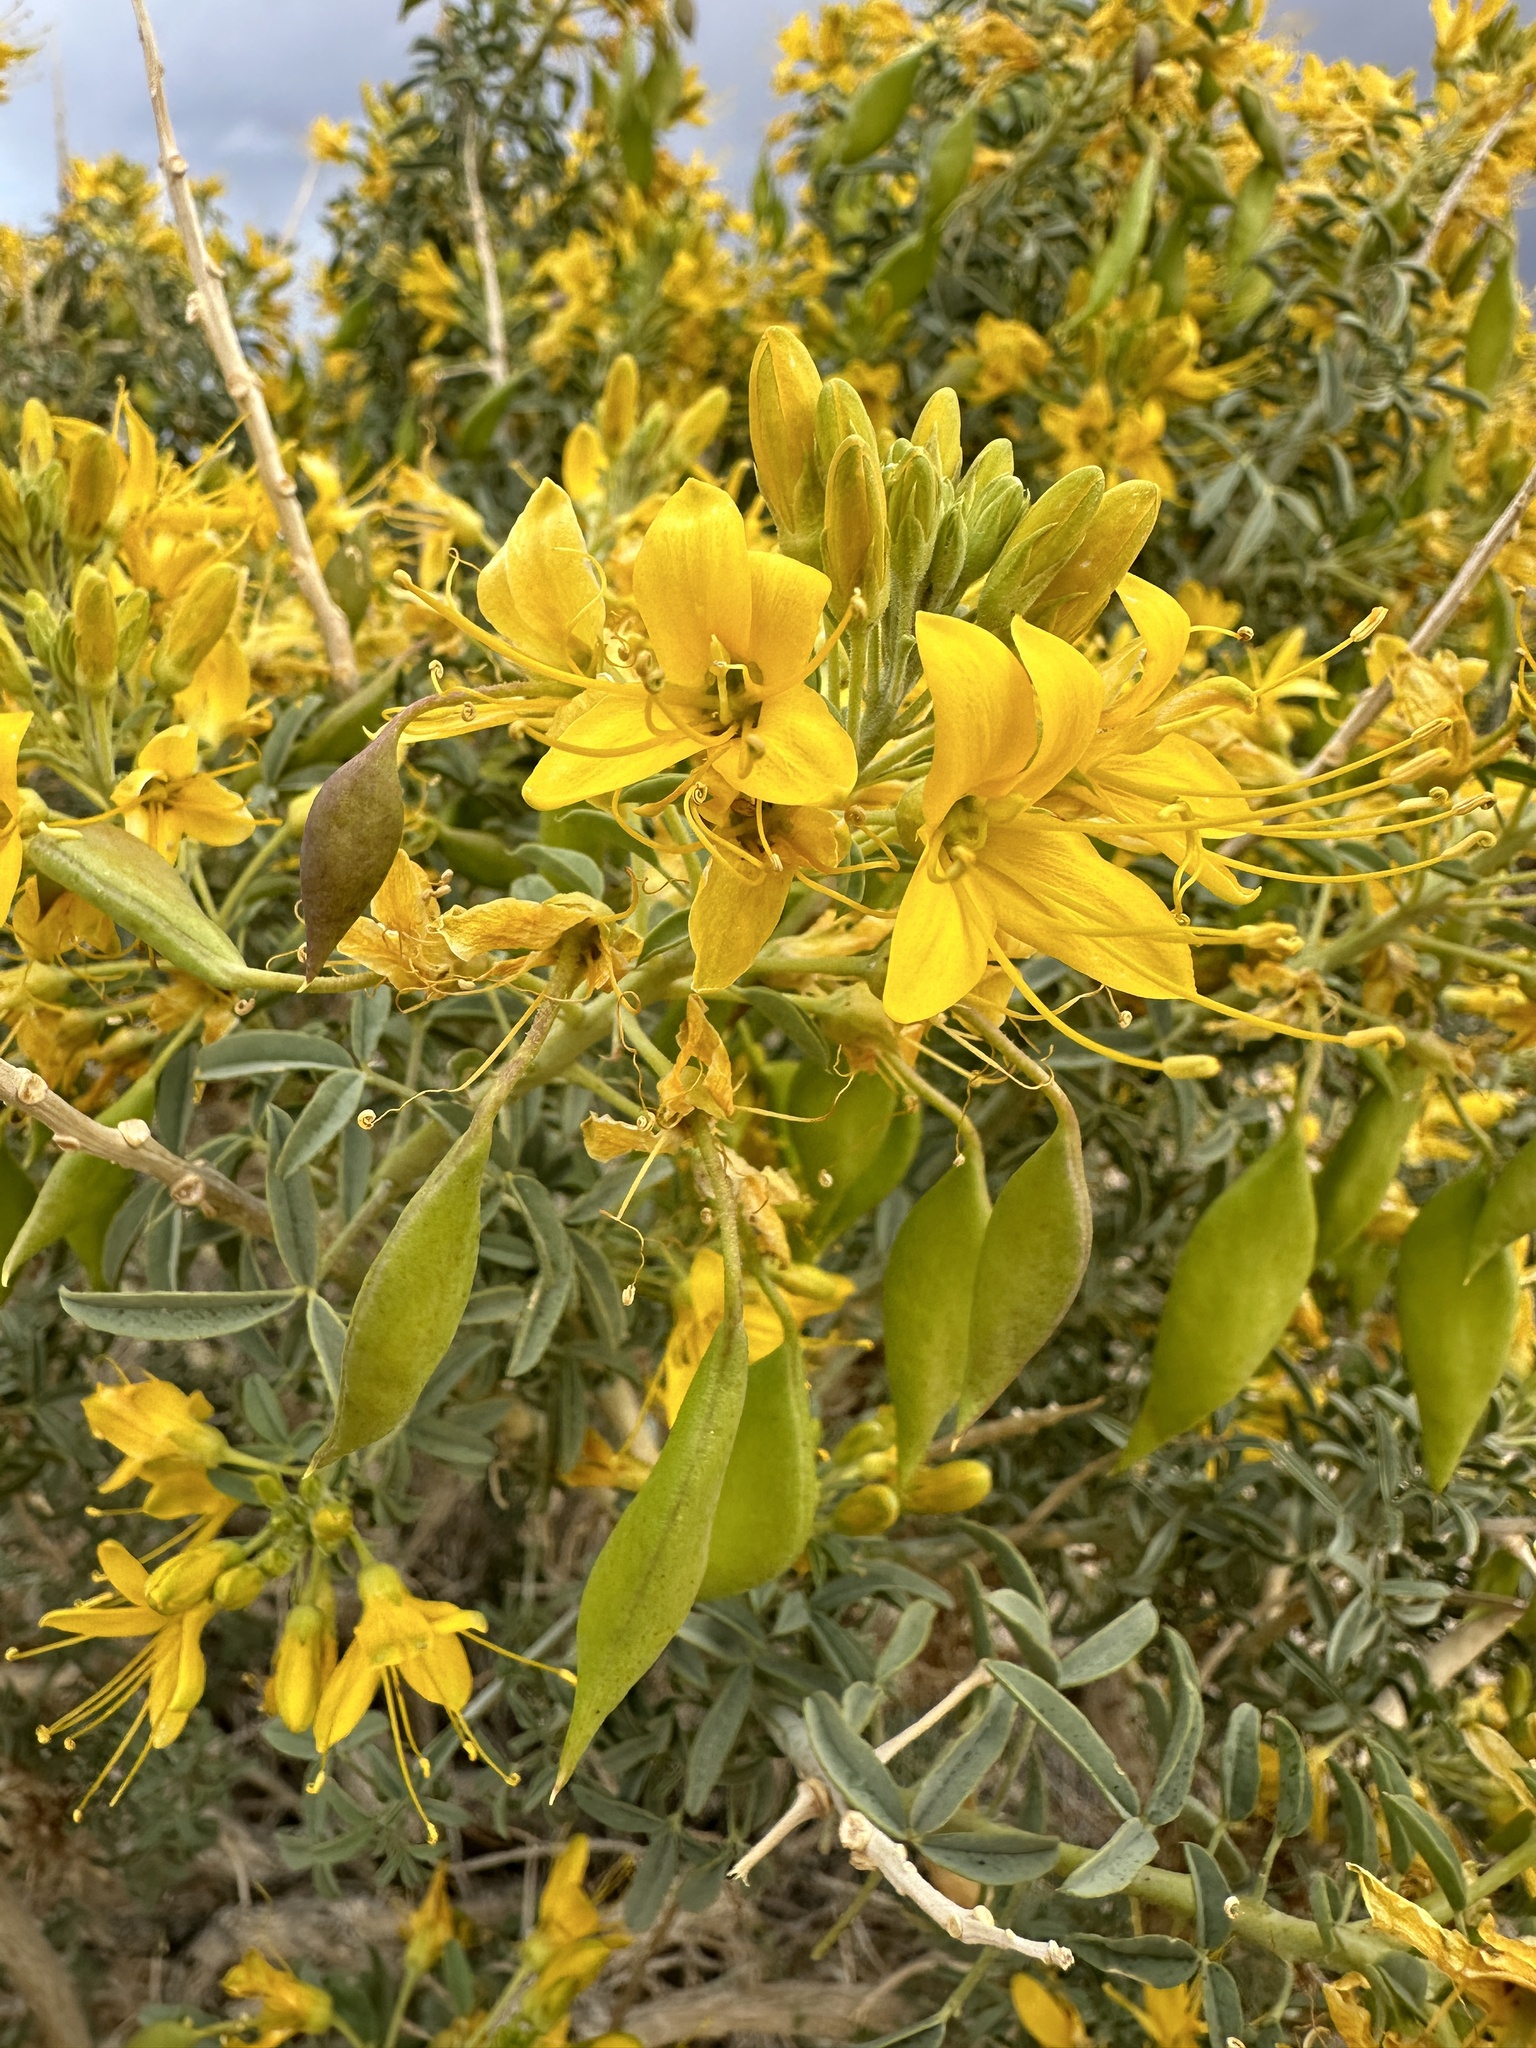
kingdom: Plantae
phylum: Tracheophyta
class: Magnoliopsida
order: Brassicales
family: Cleomaceae
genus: Cleomella
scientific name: Cleomella arborea
